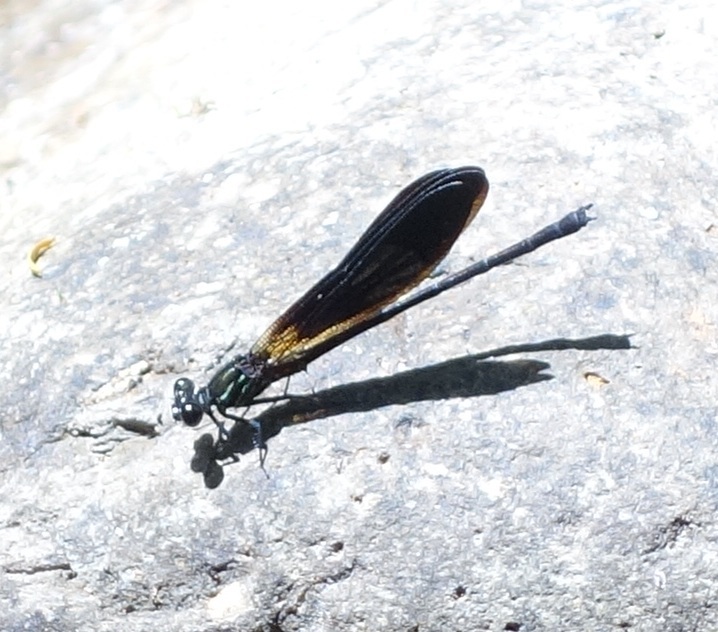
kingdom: Animalia
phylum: Arthropoda
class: Insecta
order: Odonata
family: Euphaeidae
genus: Euphaea
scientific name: Euphaea aspasia
